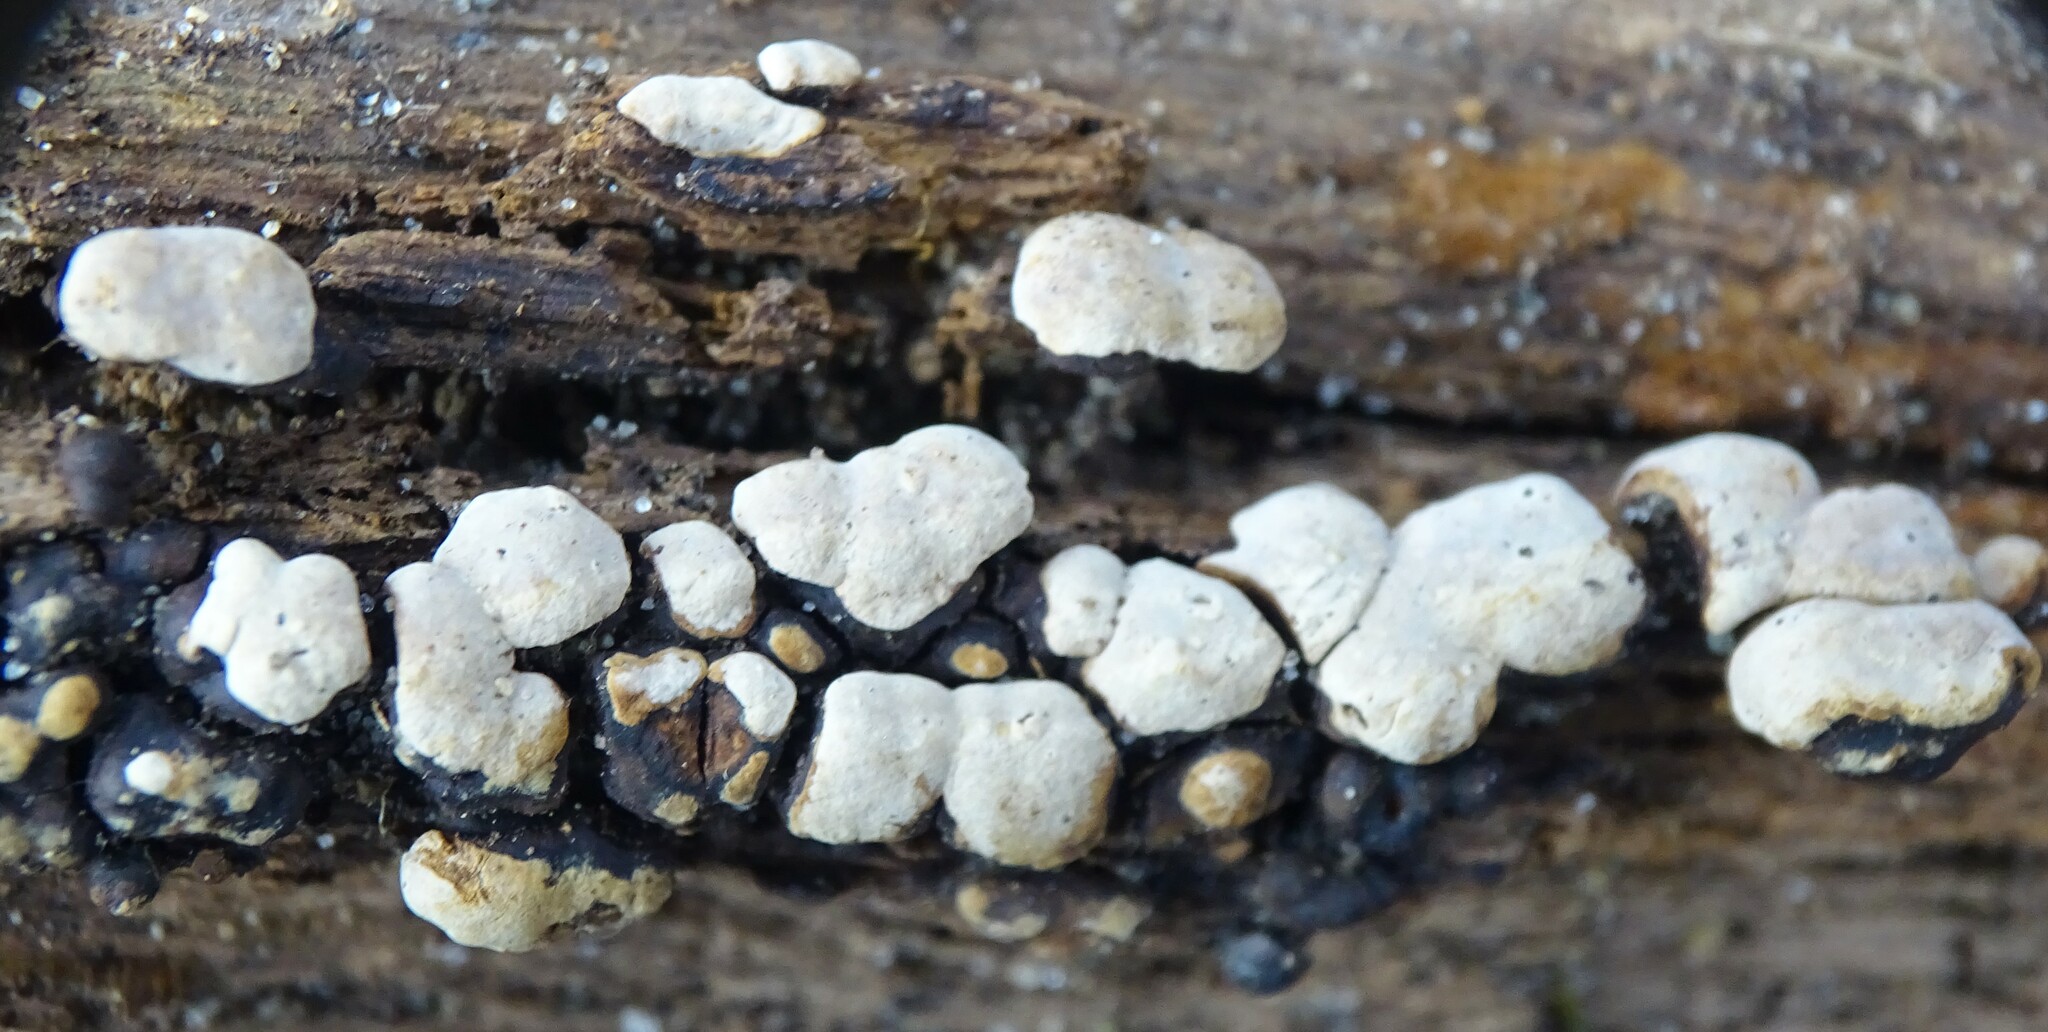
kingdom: Fungi
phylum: Basidiomycota
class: Agaricomycetes
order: Russulales
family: Stereaceae
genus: Xylobolus
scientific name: Xylobolus frustulatus
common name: Ceramic parchment
